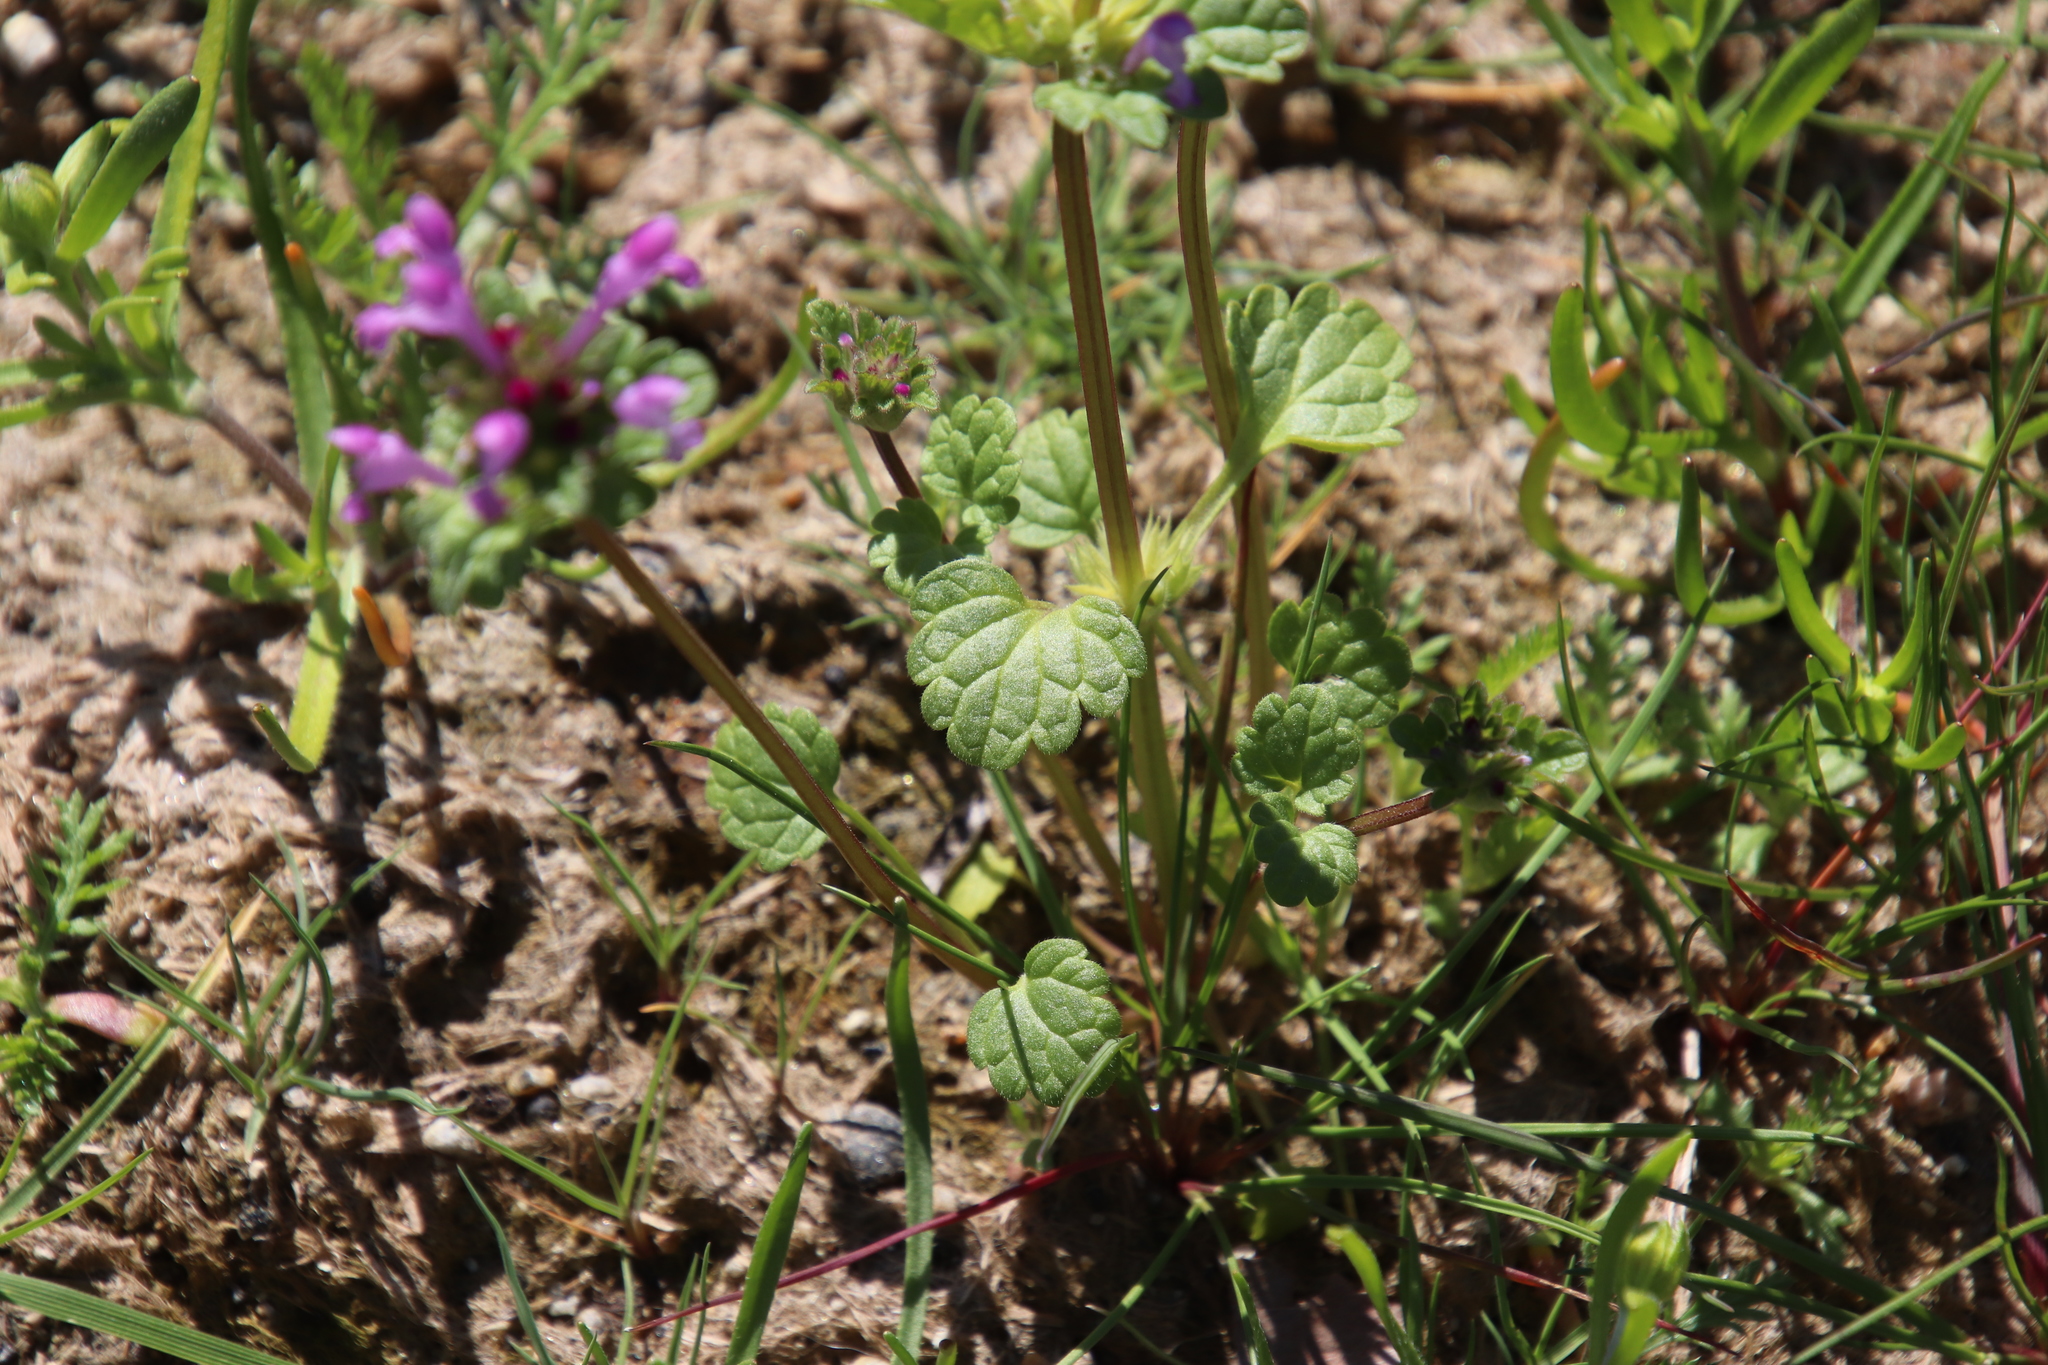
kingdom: Plantae
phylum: Tracheophyta
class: Magnoliopsida
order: Lamiales
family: Lamiaceae
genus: Lamium
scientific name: Lamium amplexicaule
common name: Henbit dead-nettle
